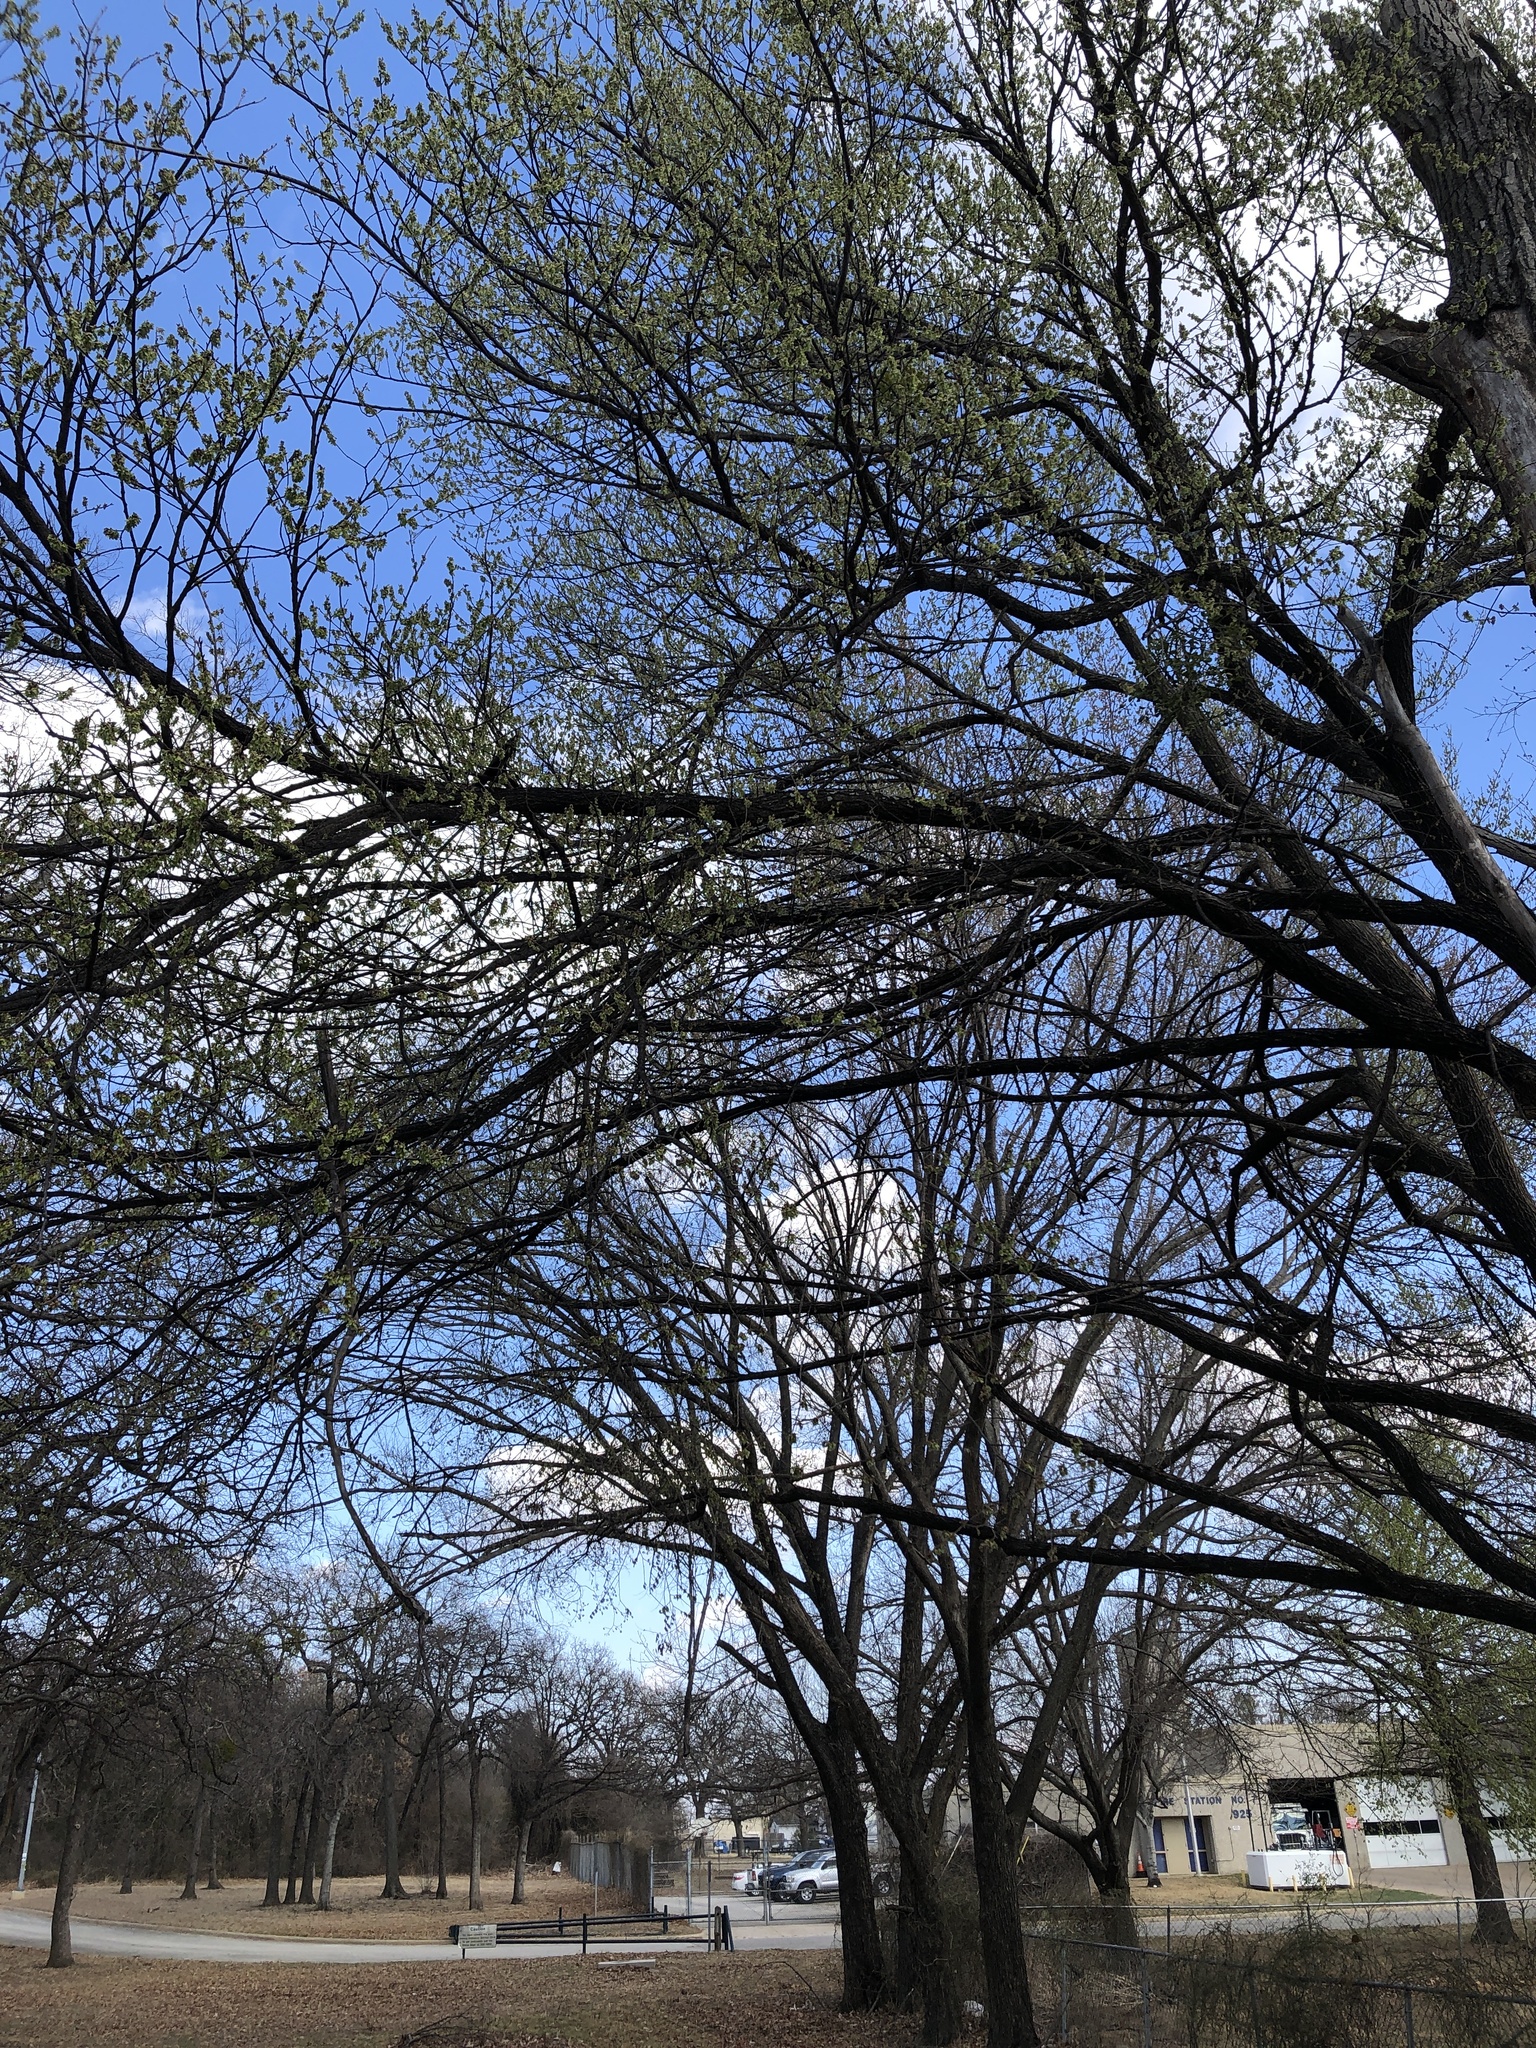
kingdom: Plantae
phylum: Tracheophyta
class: Magnoliopsida
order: Rosales
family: Ulmaceae
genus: Ulmus
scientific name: Ulmus americana
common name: American elm
